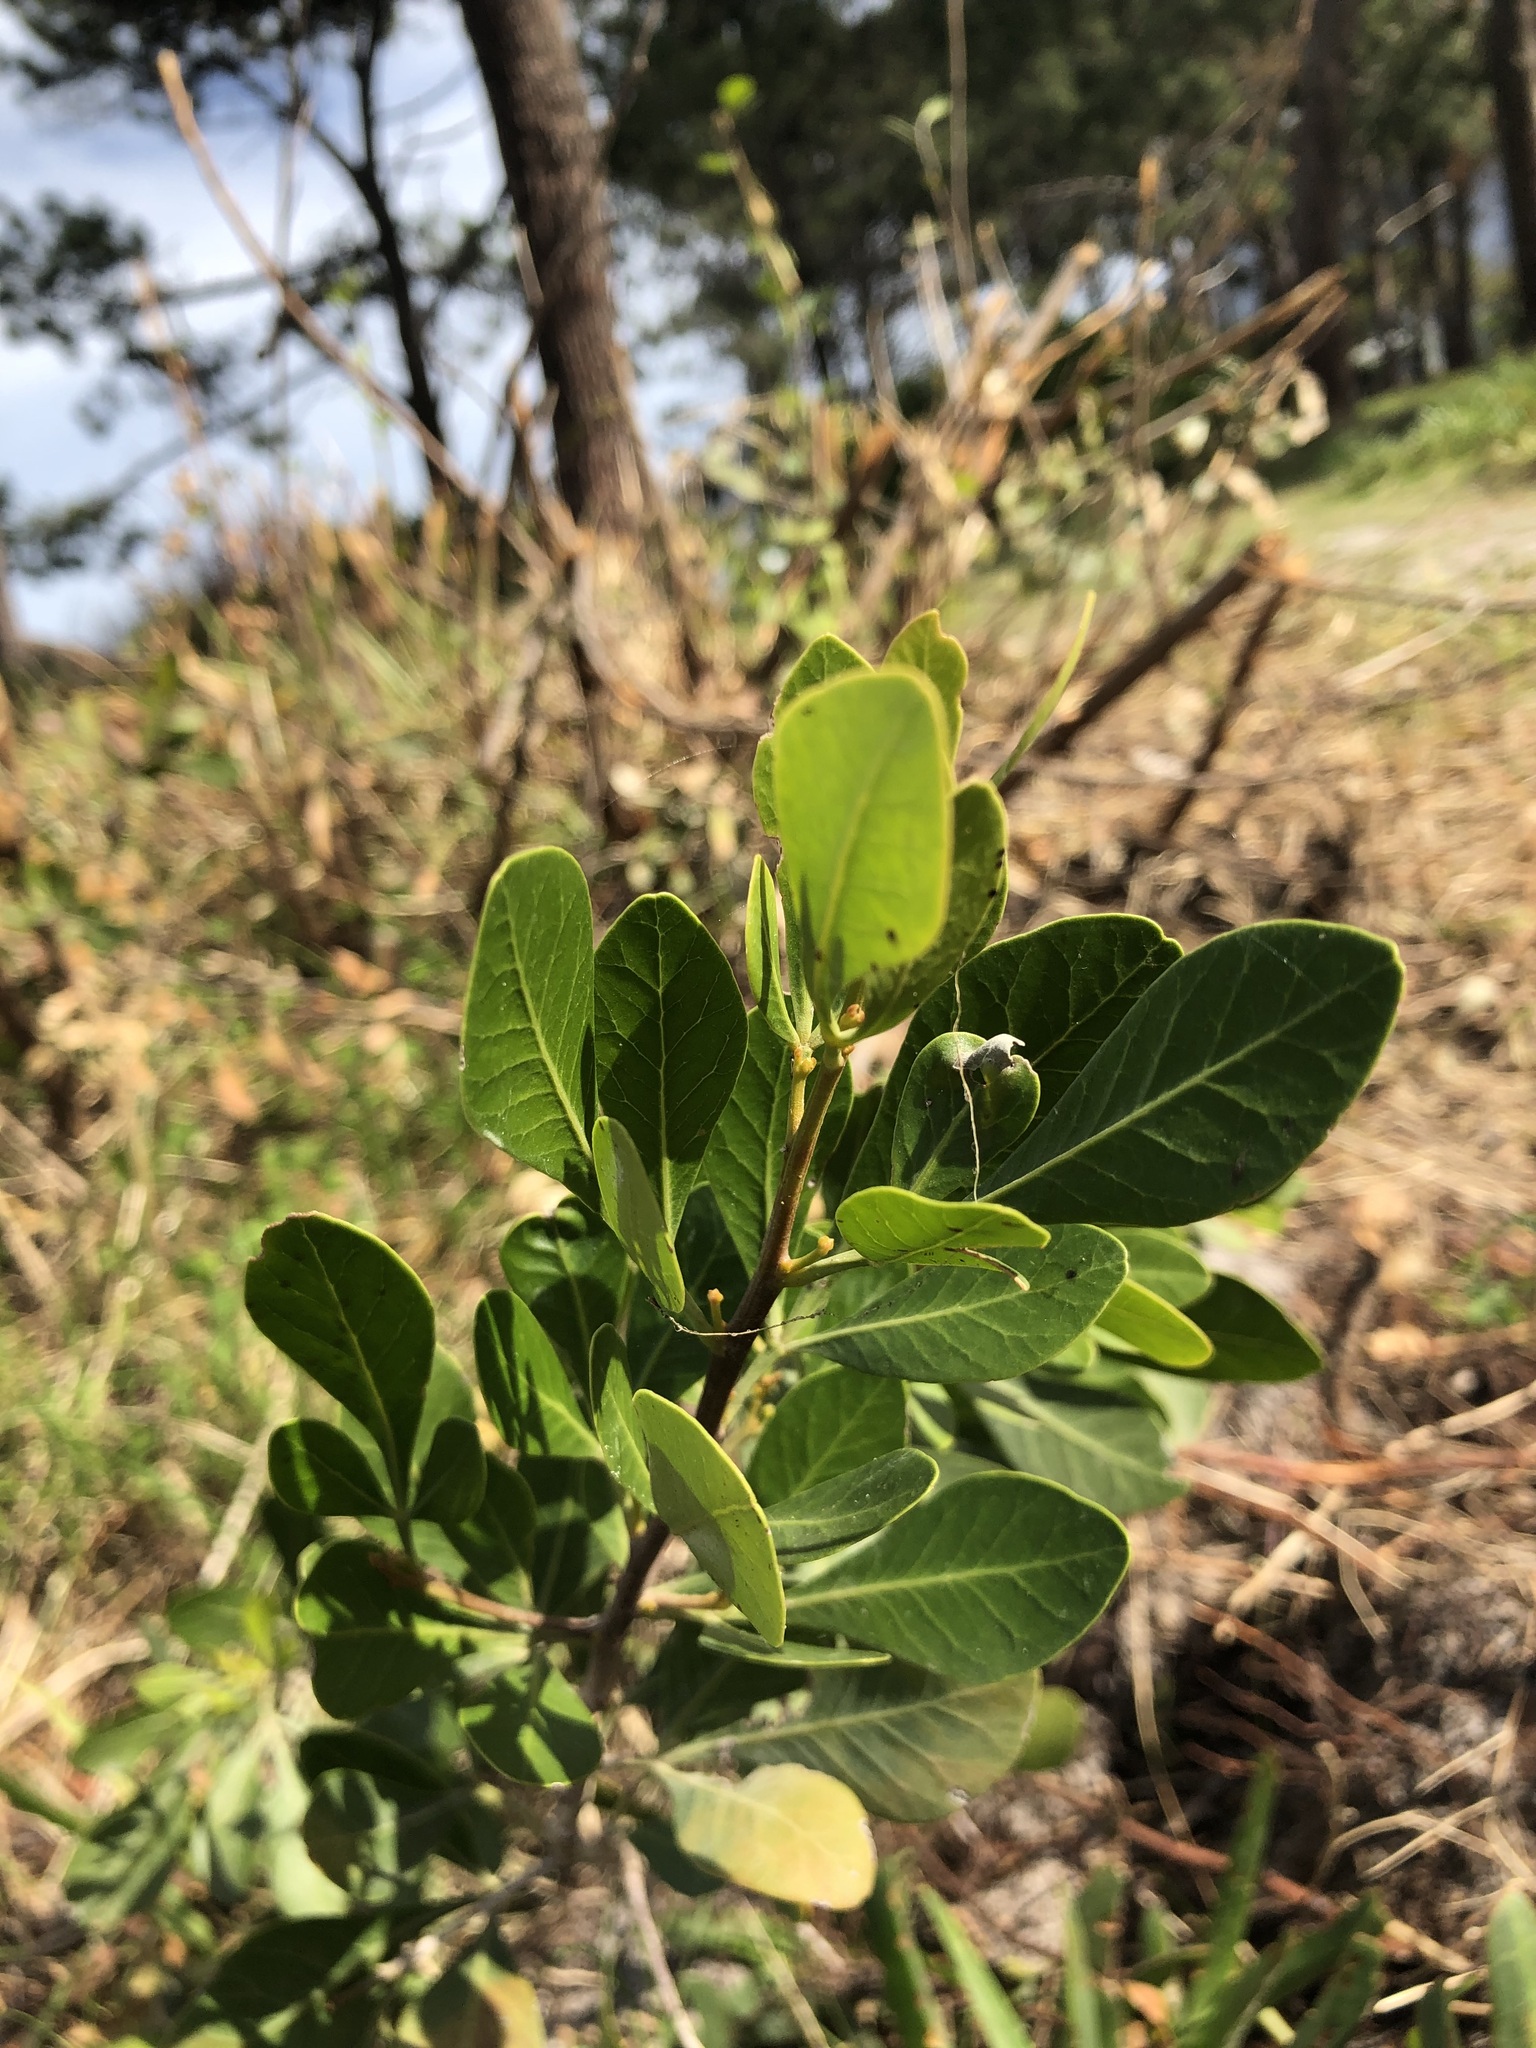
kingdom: Plantae
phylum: Tracheophyta
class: Magnoliopsida
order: Sapindales
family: Anacardiaceae
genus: Searsia
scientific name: Searsia lucida
